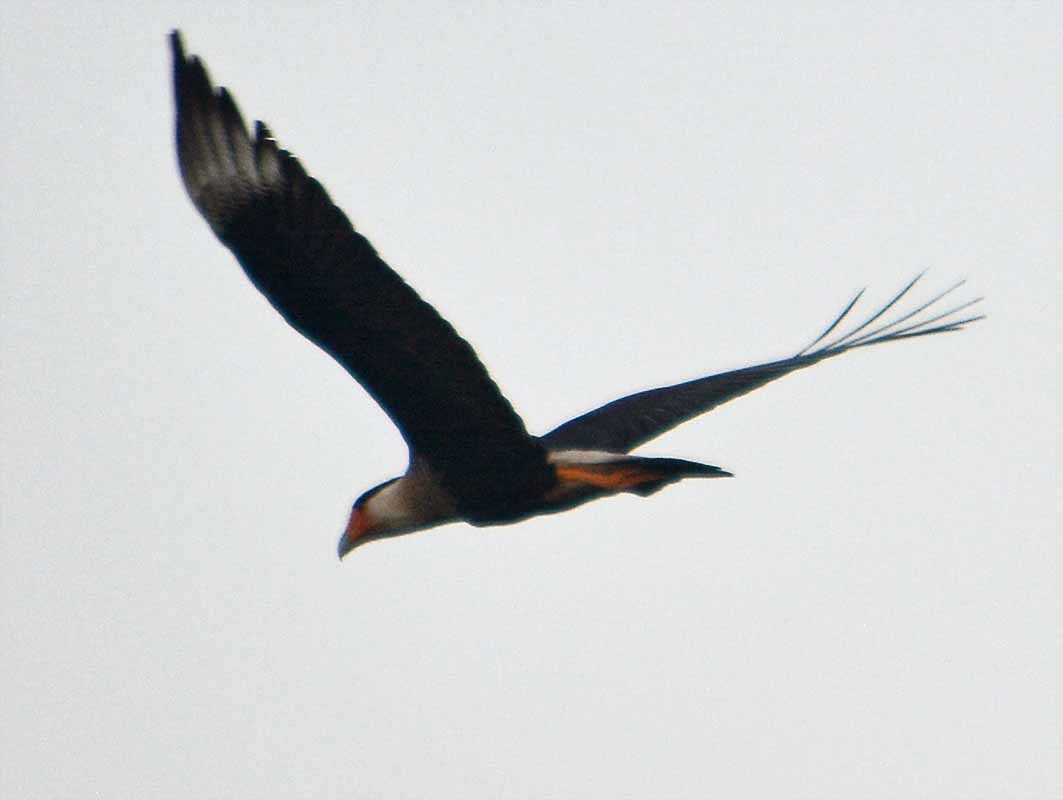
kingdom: Animalia
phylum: Chordata
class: Aves
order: Falconiformes
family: Falconidae
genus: Caracara
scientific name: Caracara plancus
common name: Southern caracara
